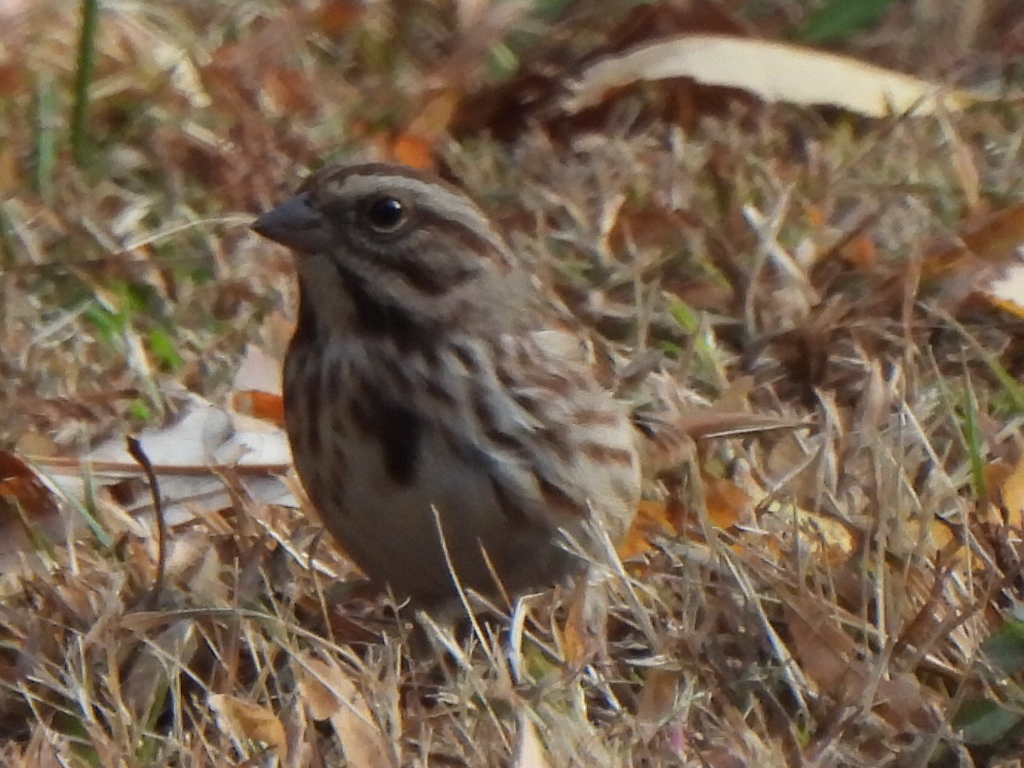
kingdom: Animalia
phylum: Chordata
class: Aves
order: Passeriformes
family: Passerellidae
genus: Melospiza
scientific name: Melospiza melodia
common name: Song sparrow
